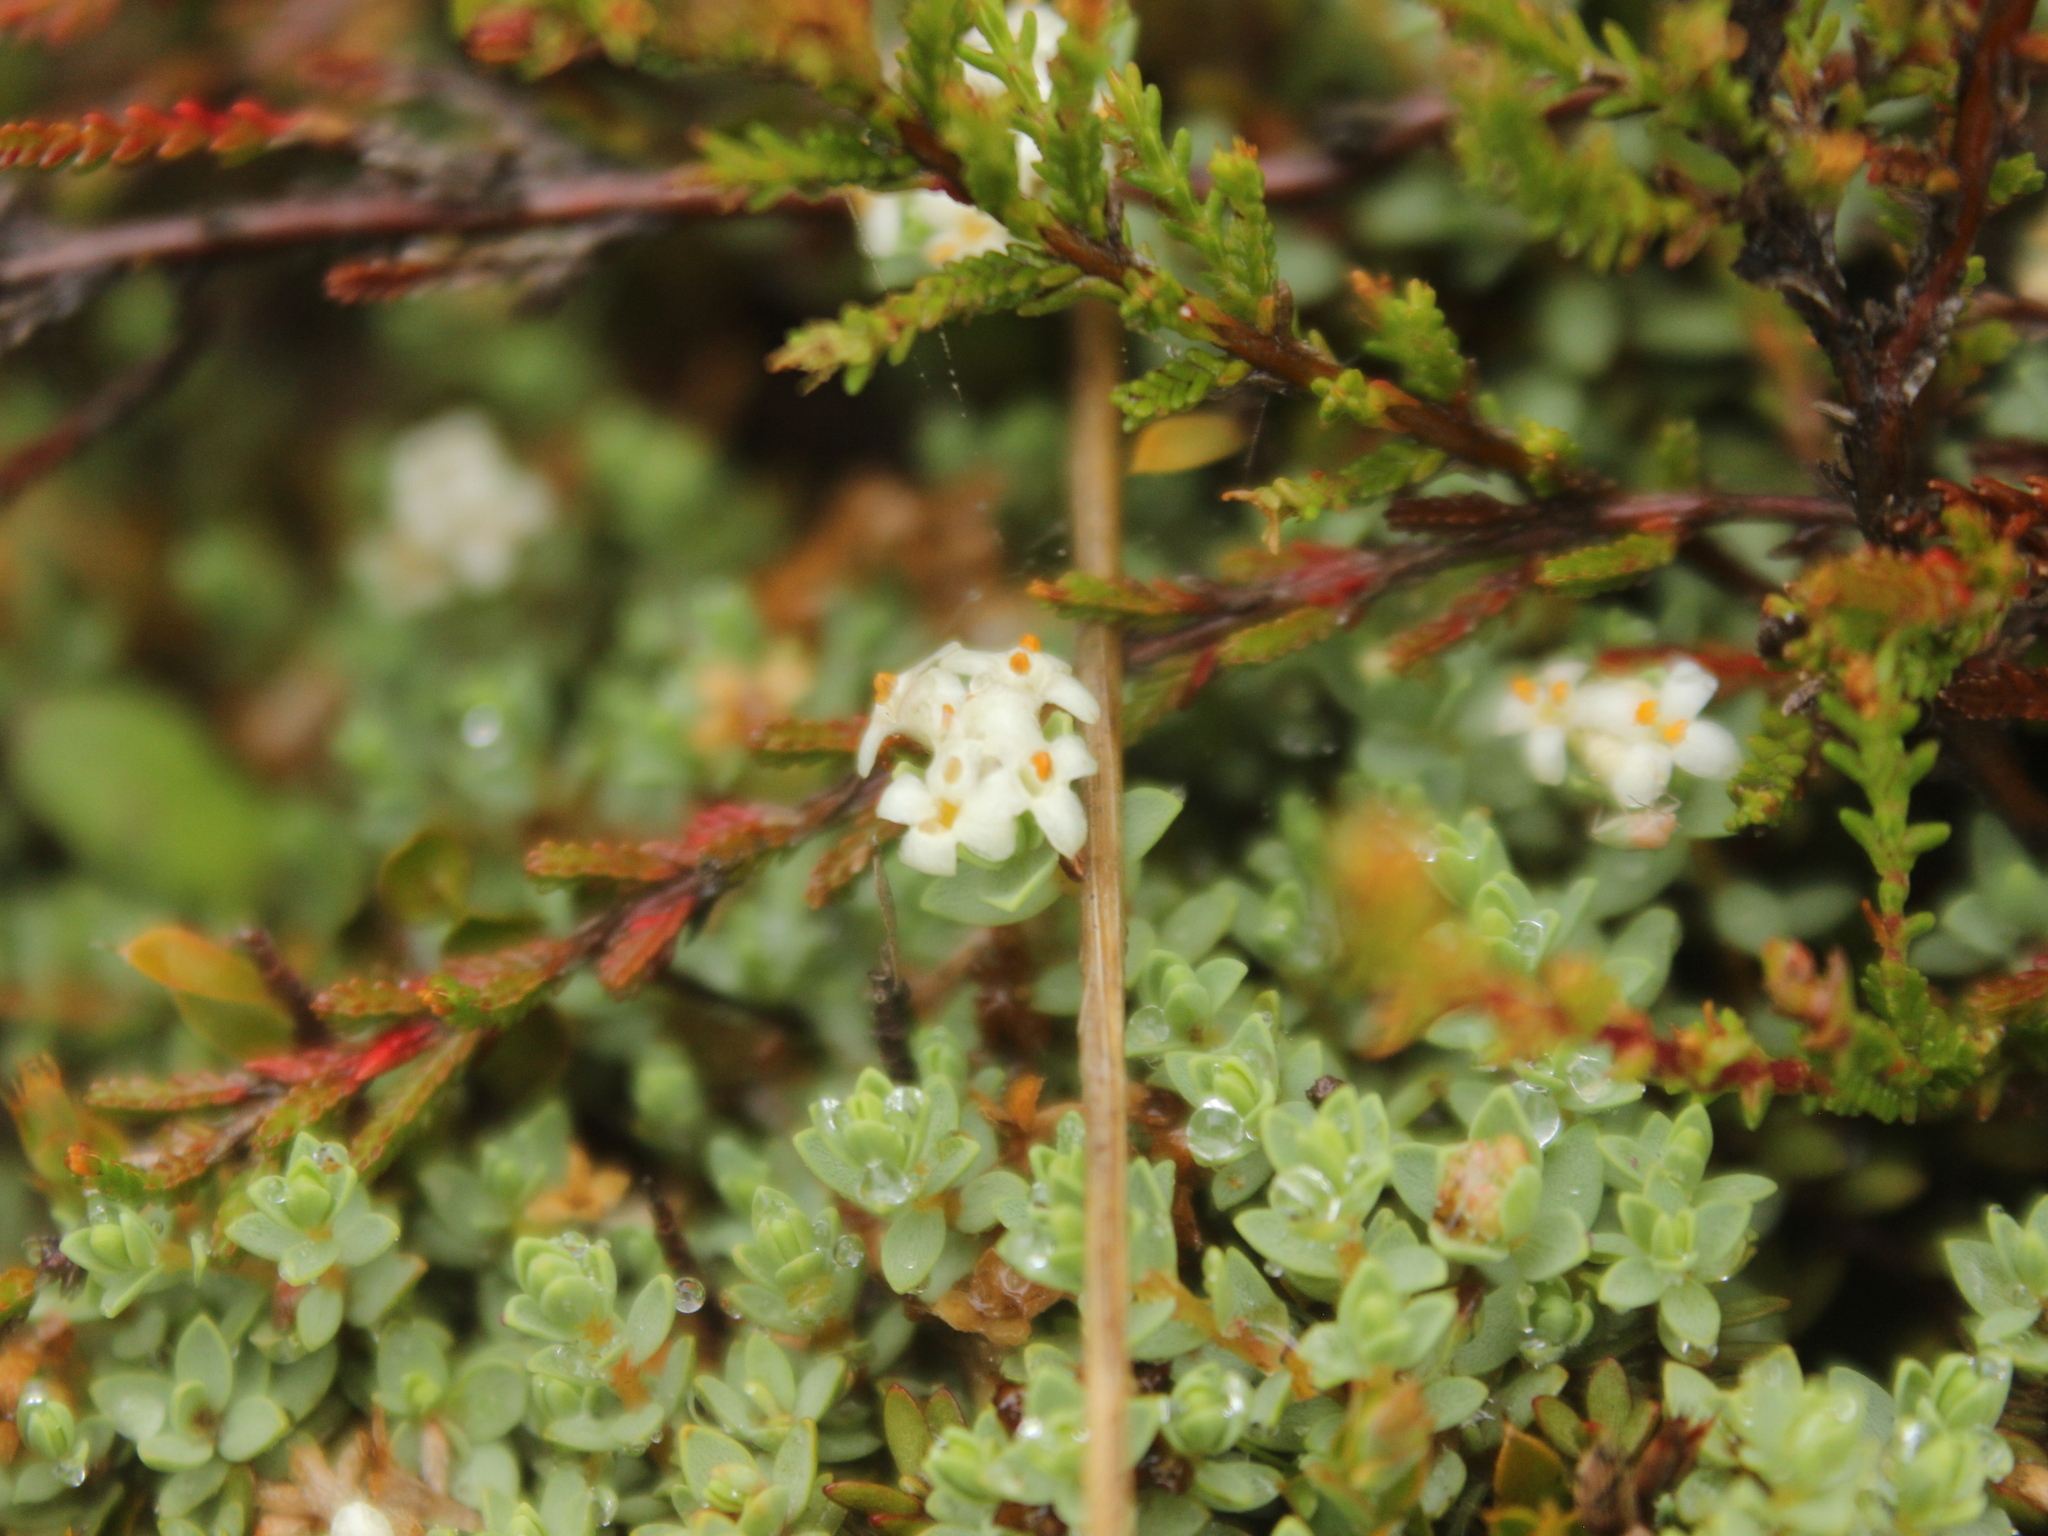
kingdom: Plantae
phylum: Tracheophyta
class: Magnoliopsida
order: Malvales
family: Thymelaeaceae
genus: Pimelea
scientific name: Pimelea prostrata
